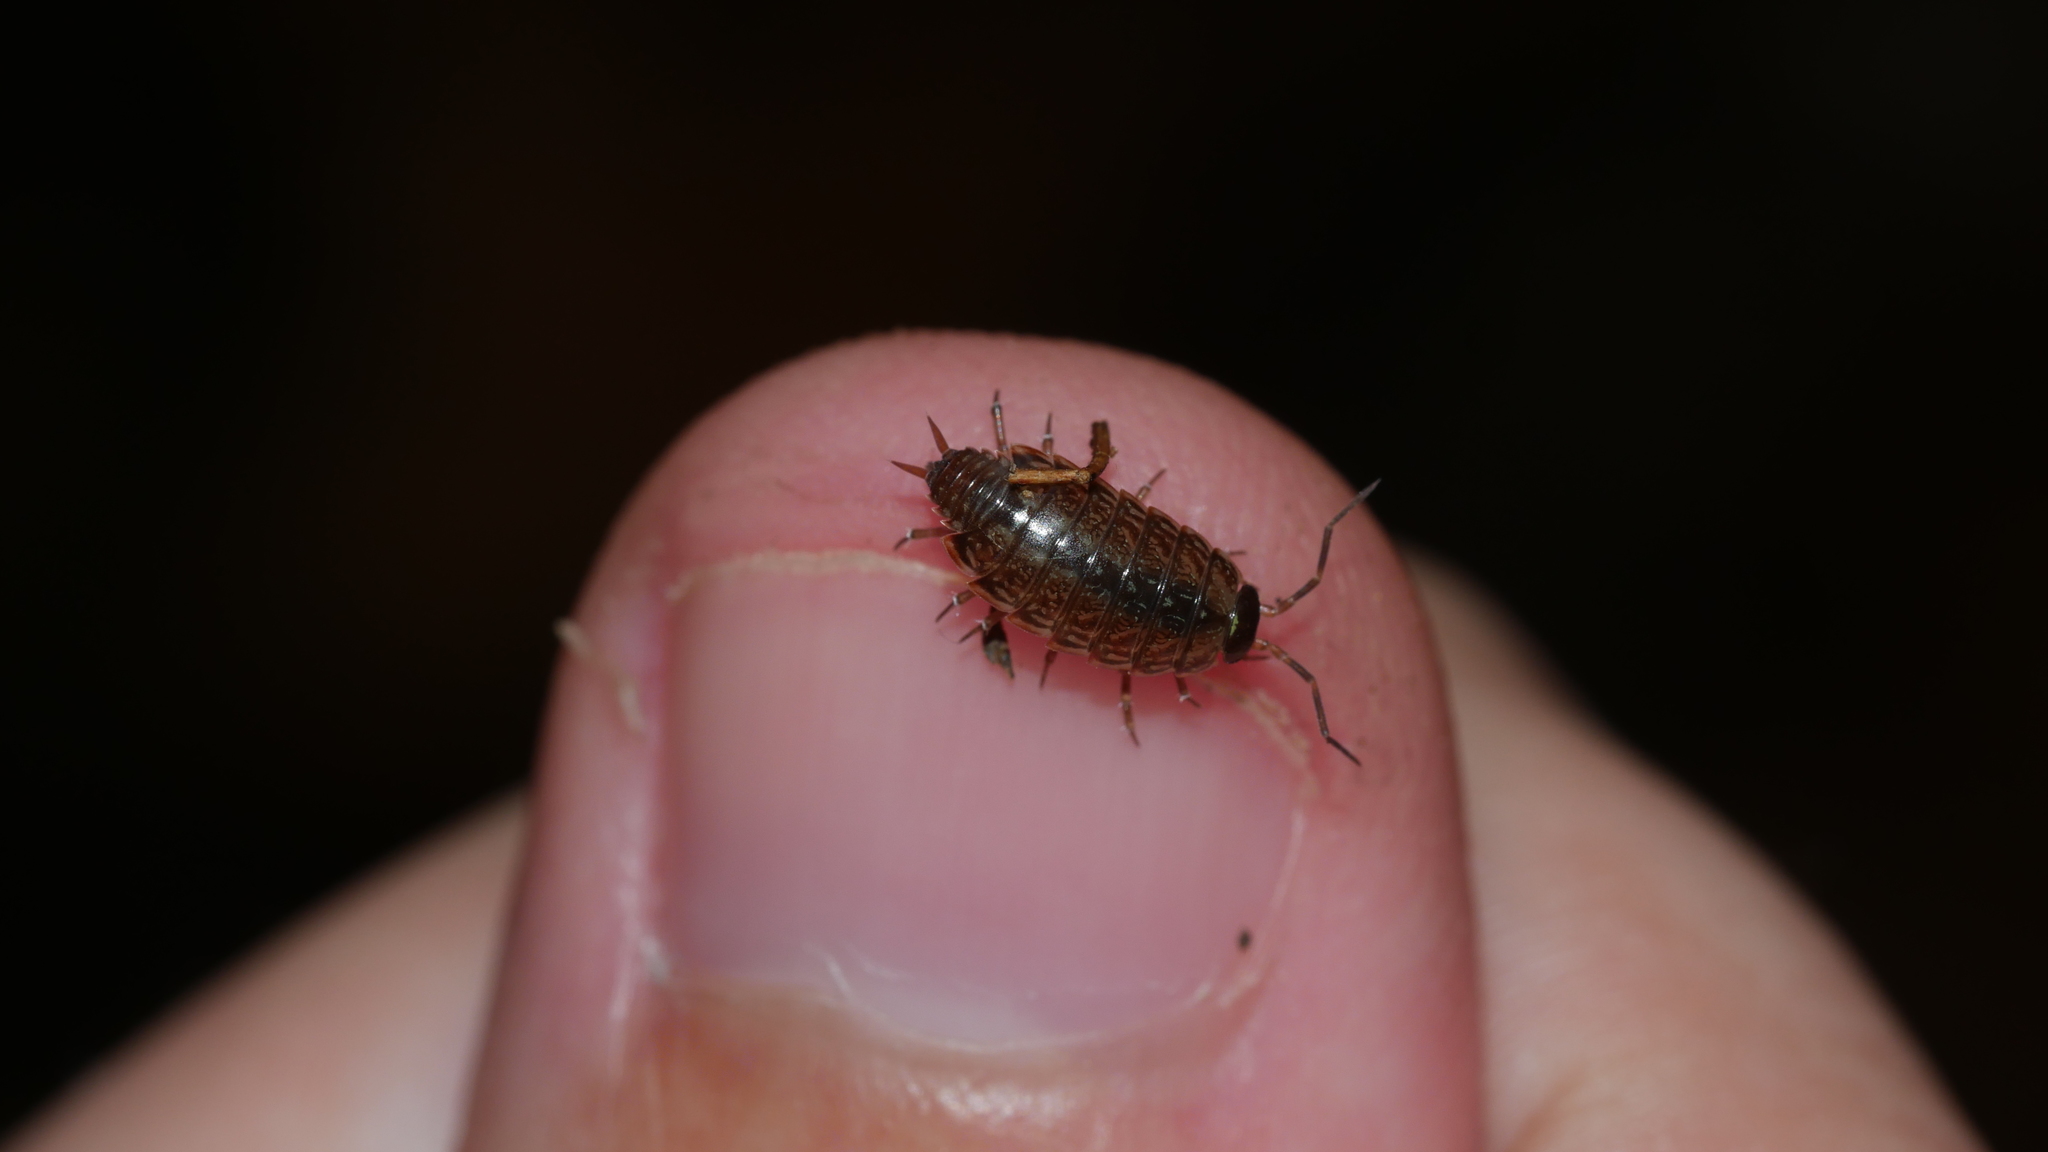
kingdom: Animalia
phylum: Arthropoda
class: Malacostraca
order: Isopoda
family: Philosciidae
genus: Philoscia
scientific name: Philoscia muscorum
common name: Common striped woodlouse
